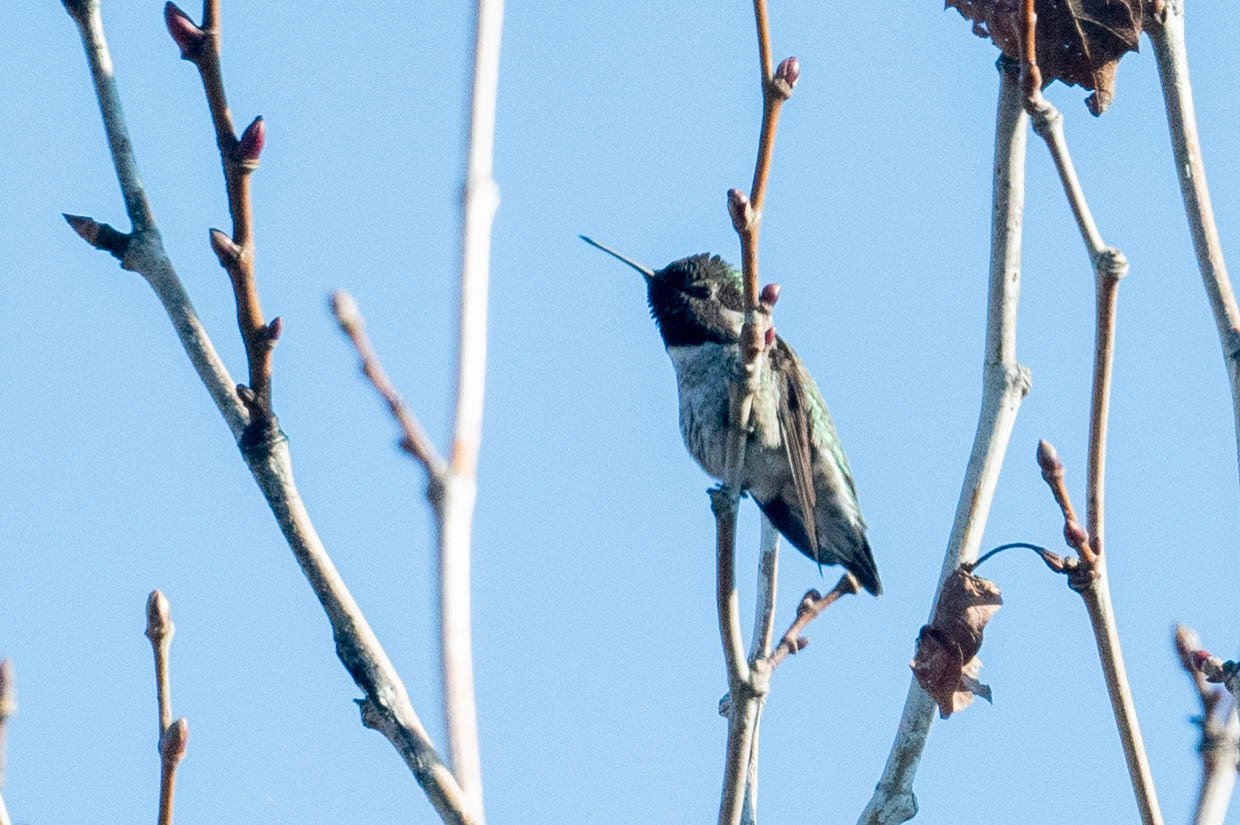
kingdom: Animalia
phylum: Chordata
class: Aves
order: Apodiformes
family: Trochilidae
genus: Calypte
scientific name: Calypte anna
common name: Anna's hummingbird
